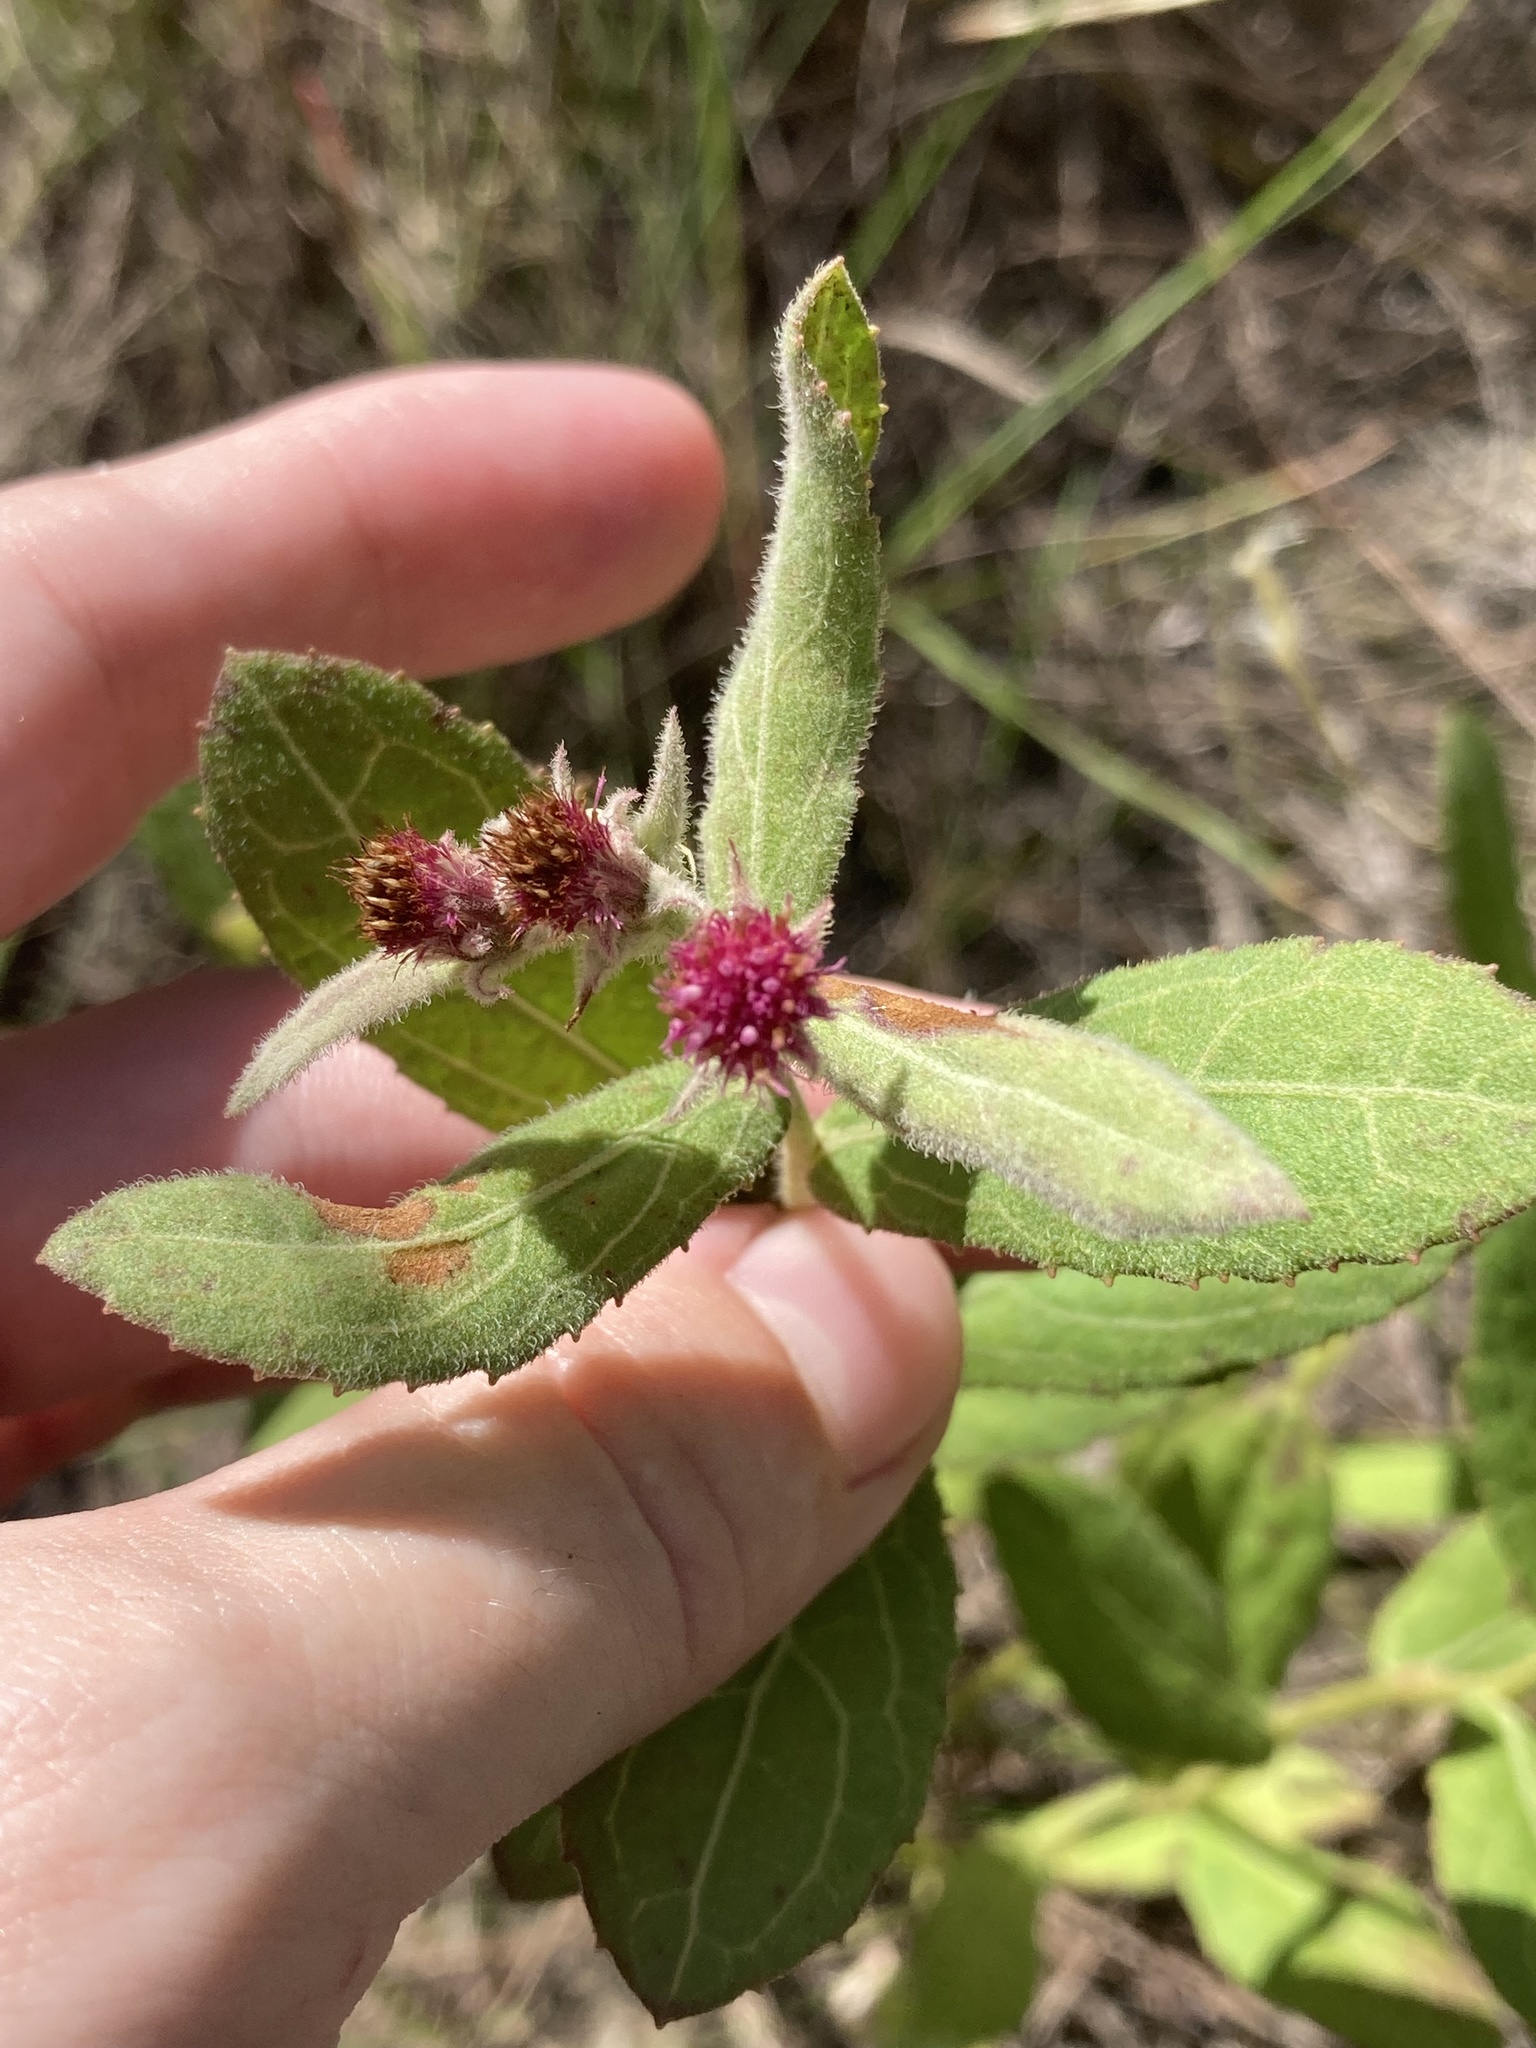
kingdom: Plantae
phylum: Tracheophyta
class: Magnoliopsida
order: Asterales
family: Asteraceae
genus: Pluchea
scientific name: Pluchea baccharis
